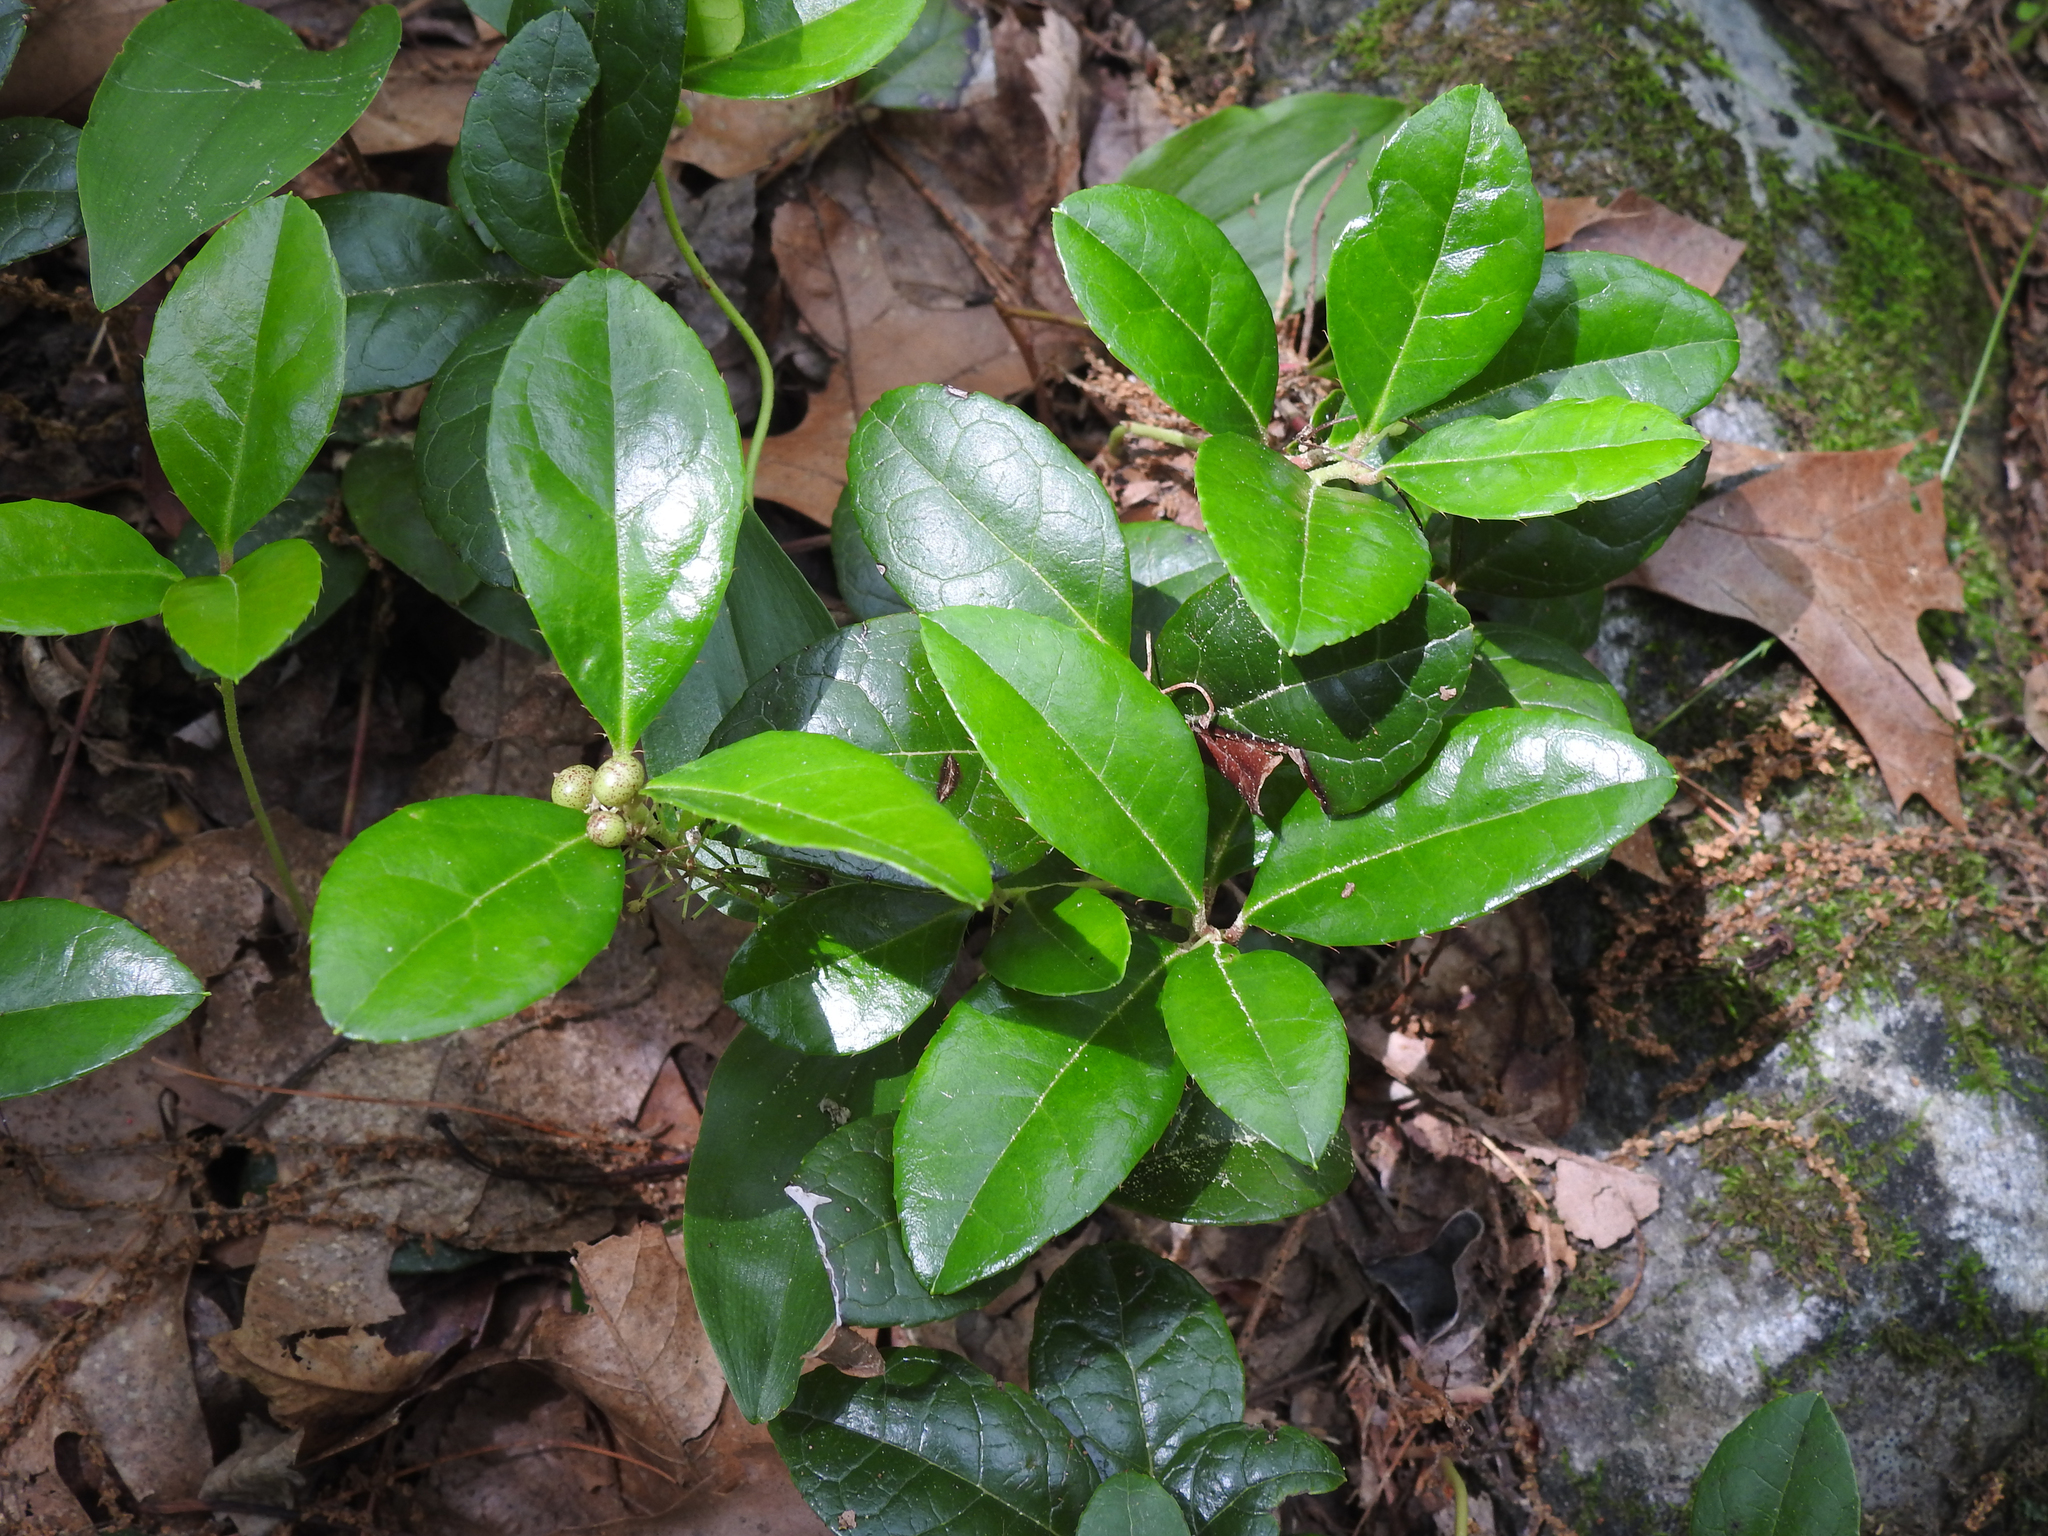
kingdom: Plantae
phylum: Tracheophyta
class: Magnoliopsida
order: Ericales
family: Ericaceae
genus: Gaultheria
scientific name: Gaultheria procumbens
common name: Checkerberry
